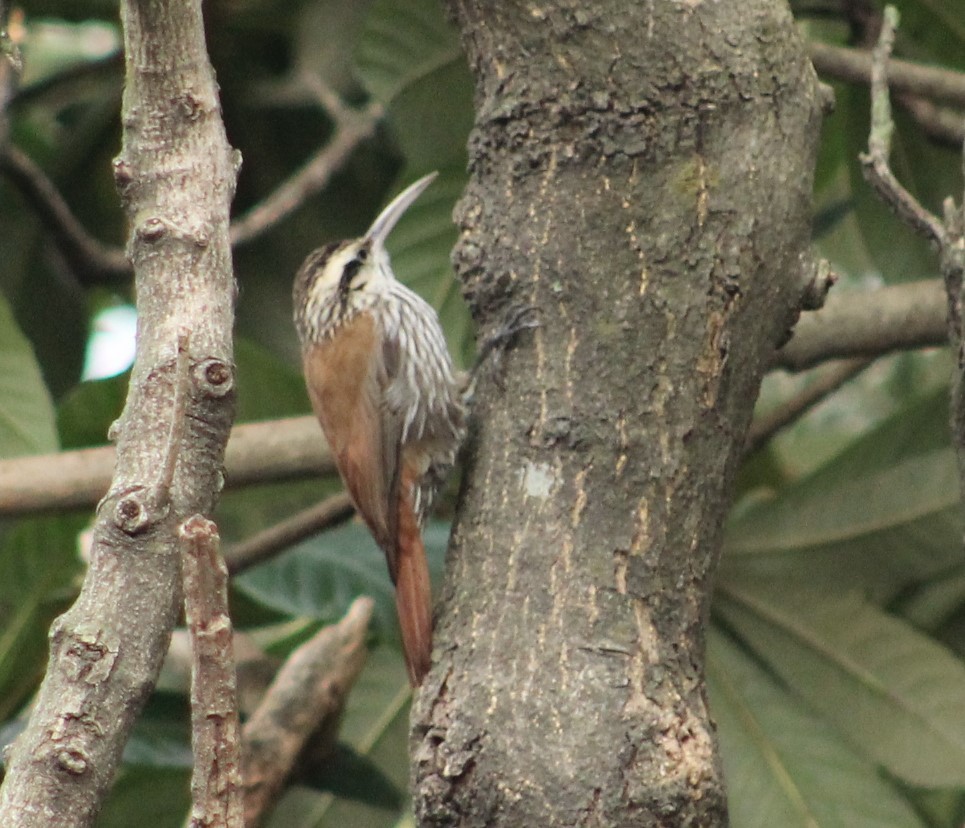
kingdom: Animalia
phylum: Chordata
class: Aves
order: Passeriformes
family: Furnariidae
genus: Lepidocolaptes
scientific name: Lepidocolaptes angustirostris
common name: Narrow-billed woodcreeper
